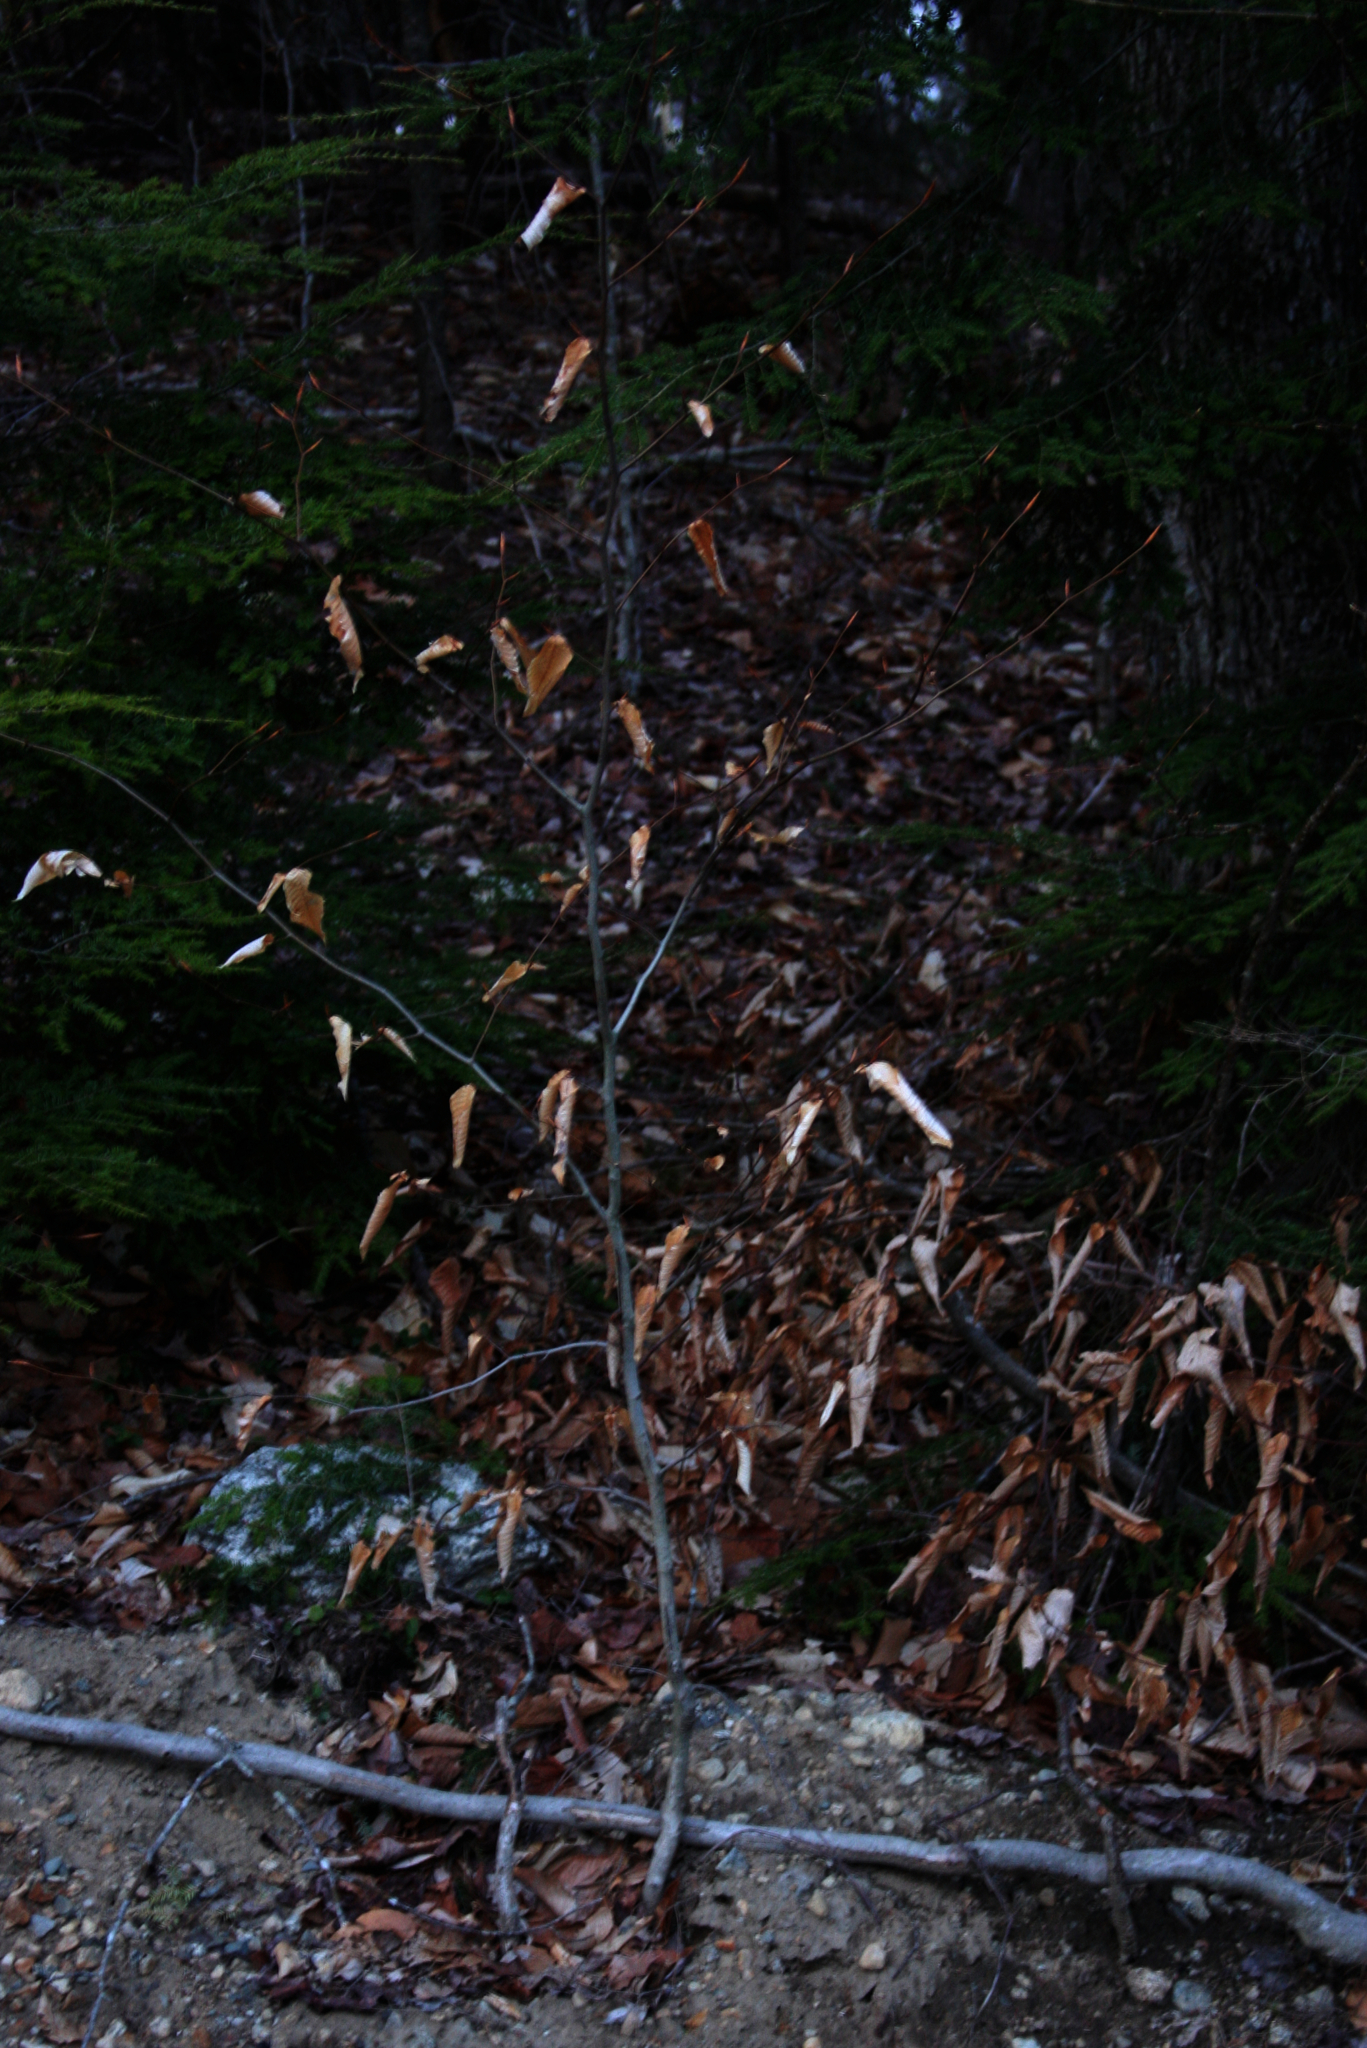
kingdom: Plantae
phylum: Tracheophyta
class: Magnoliopsida
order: Fagales
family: Fagaceae
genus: Fagus
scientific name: Fagus grandifolia
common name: American beech
